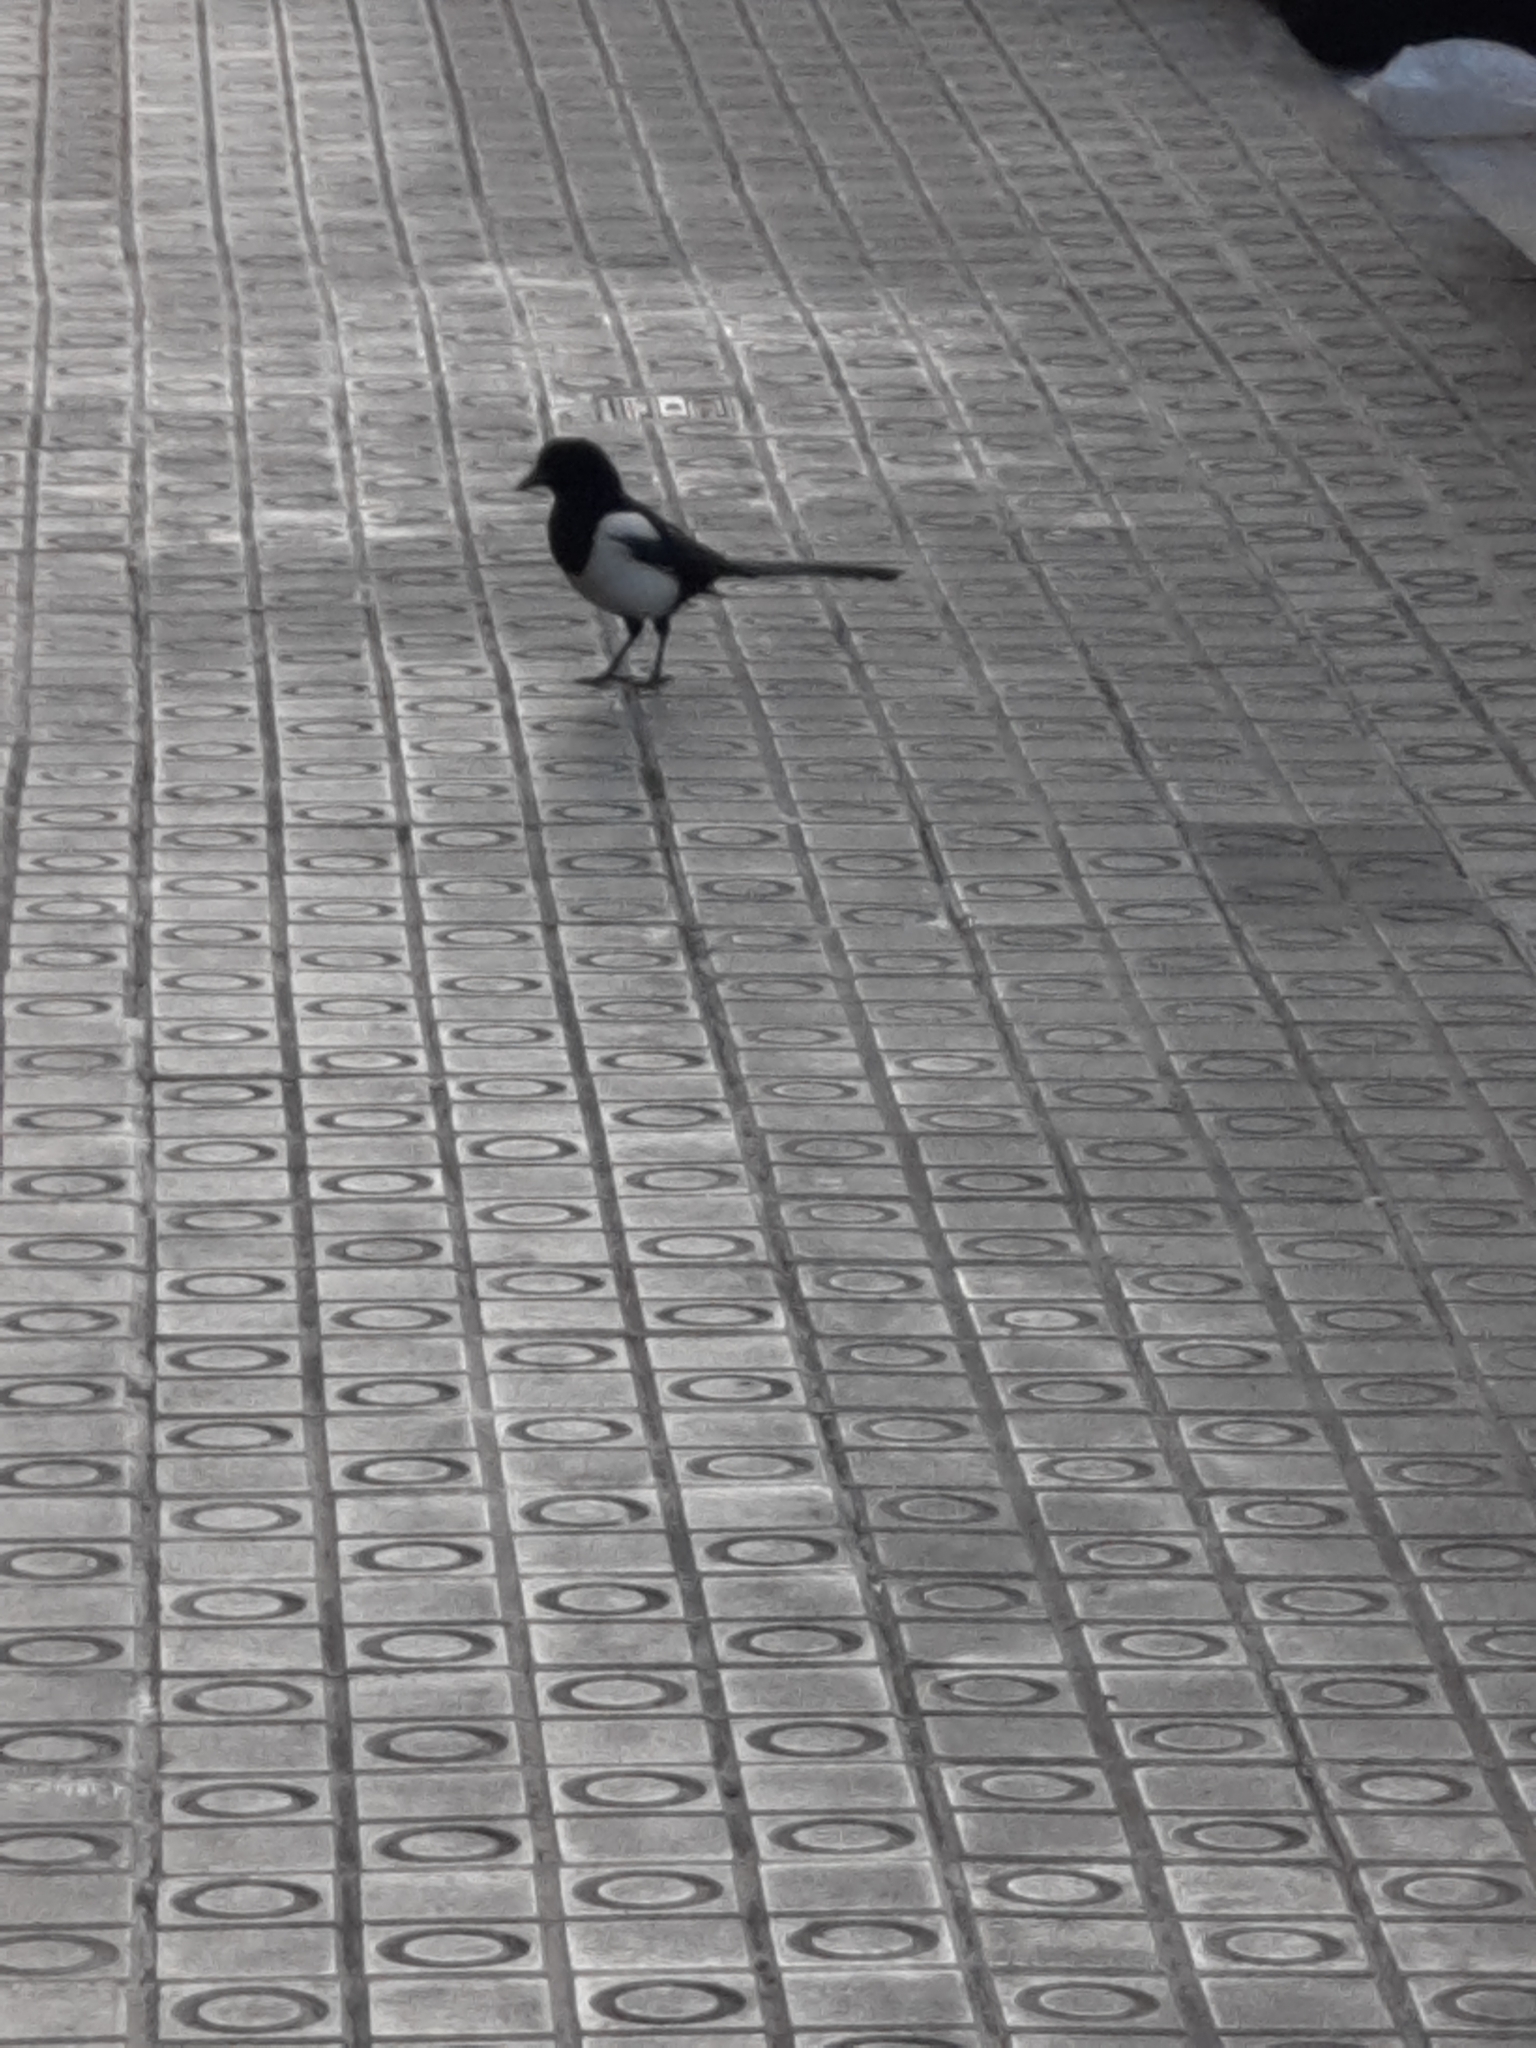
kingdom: Animalia
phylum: Chordata
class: Aves
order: Passeriformes
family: Corvidae
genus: Pica
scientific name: Pica pica
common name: Eurasian magpie
